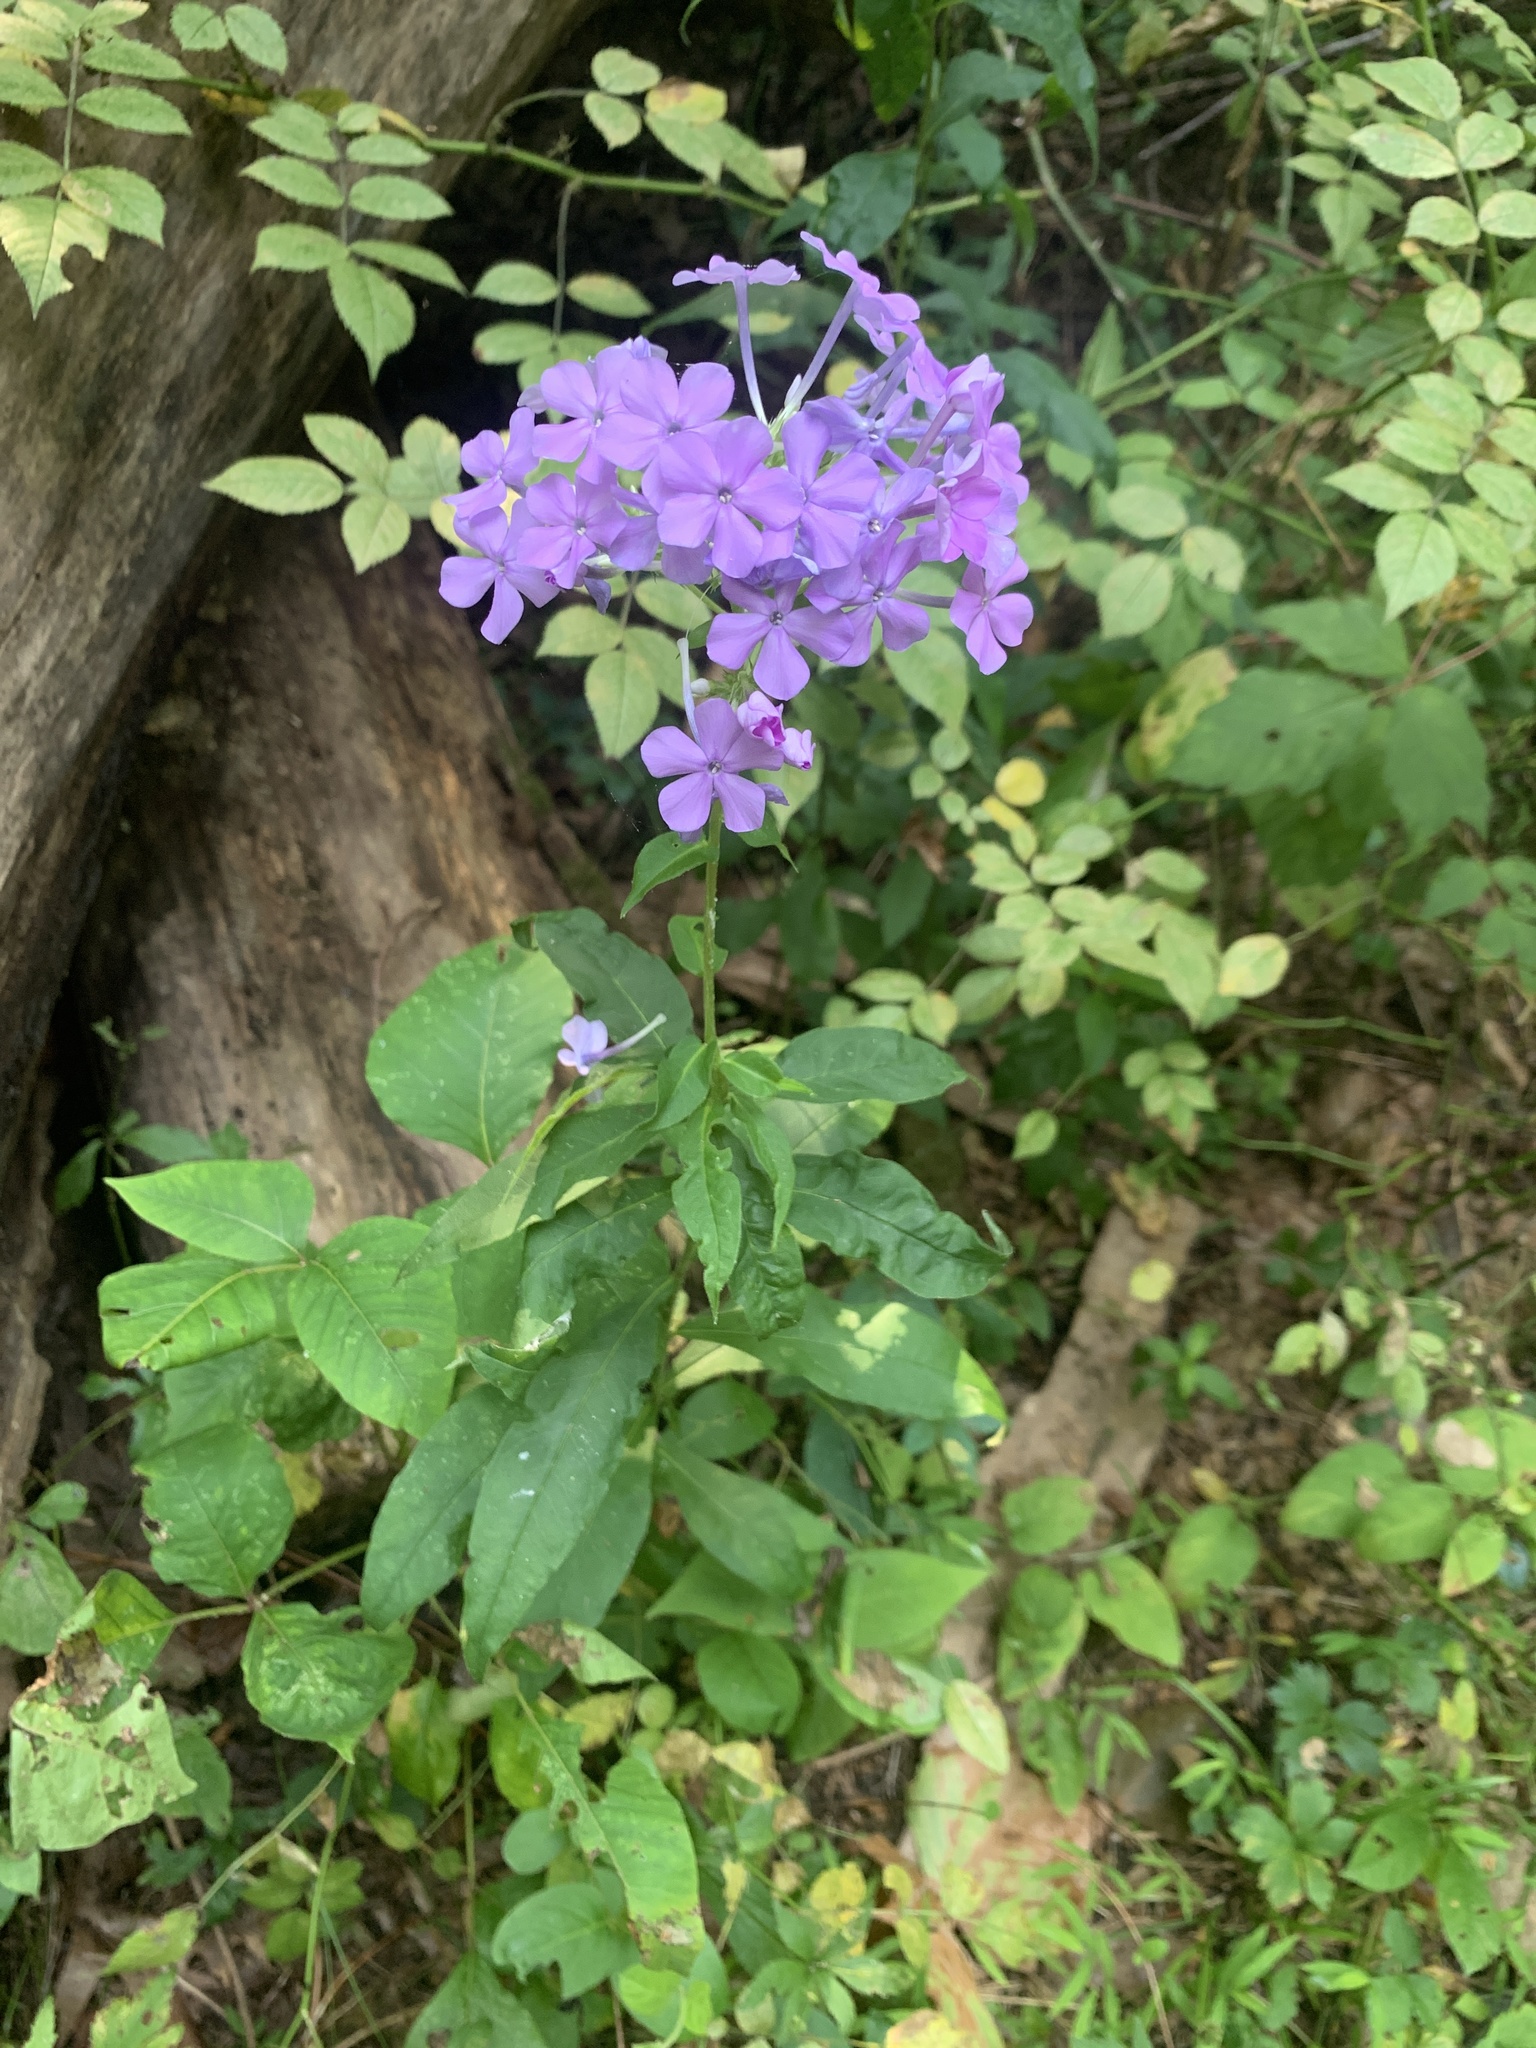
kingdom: Plantae
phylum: Tracheophyta
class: Magnoliopsida
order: Ericales
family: Polemoniaceae
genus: Phlox
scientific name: Phlox paniculata
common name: Fall phlox
